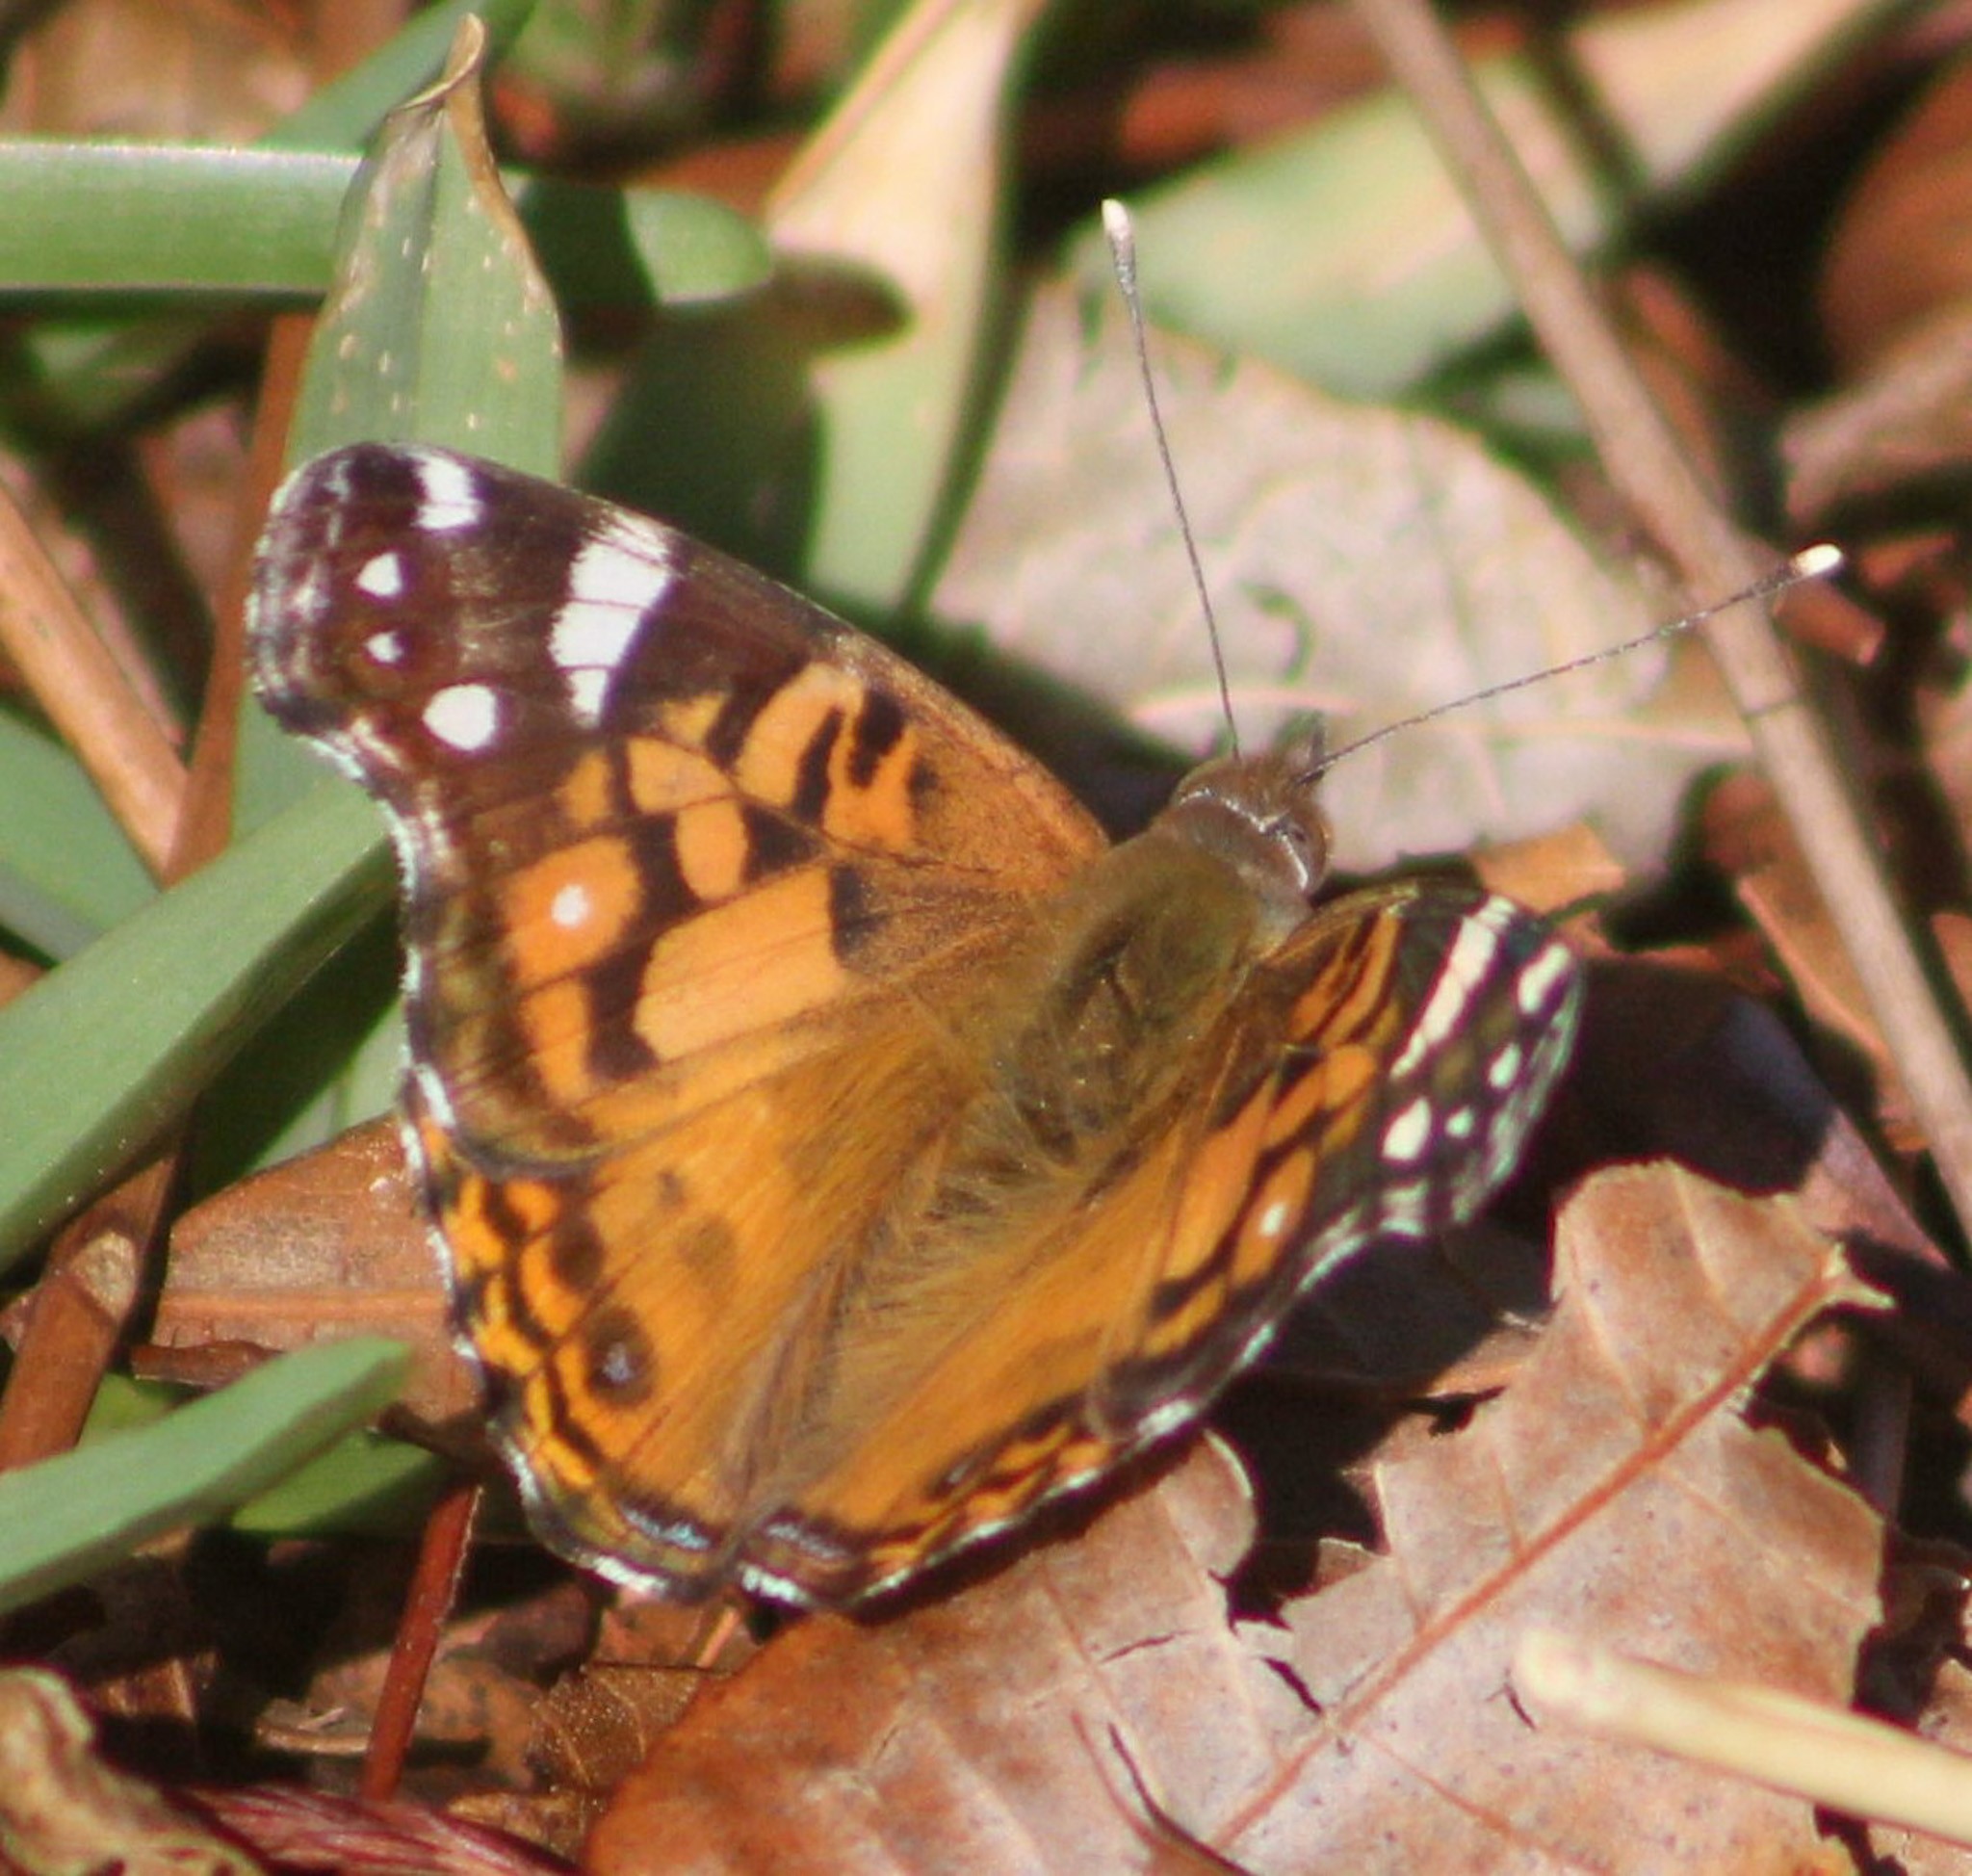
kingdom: Animalia
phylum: Arthropoda
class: Insecta
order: Lepidoptera
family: Nymphalidae
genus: Vanessa
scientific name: Vanessa virginiensis
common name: American lady
